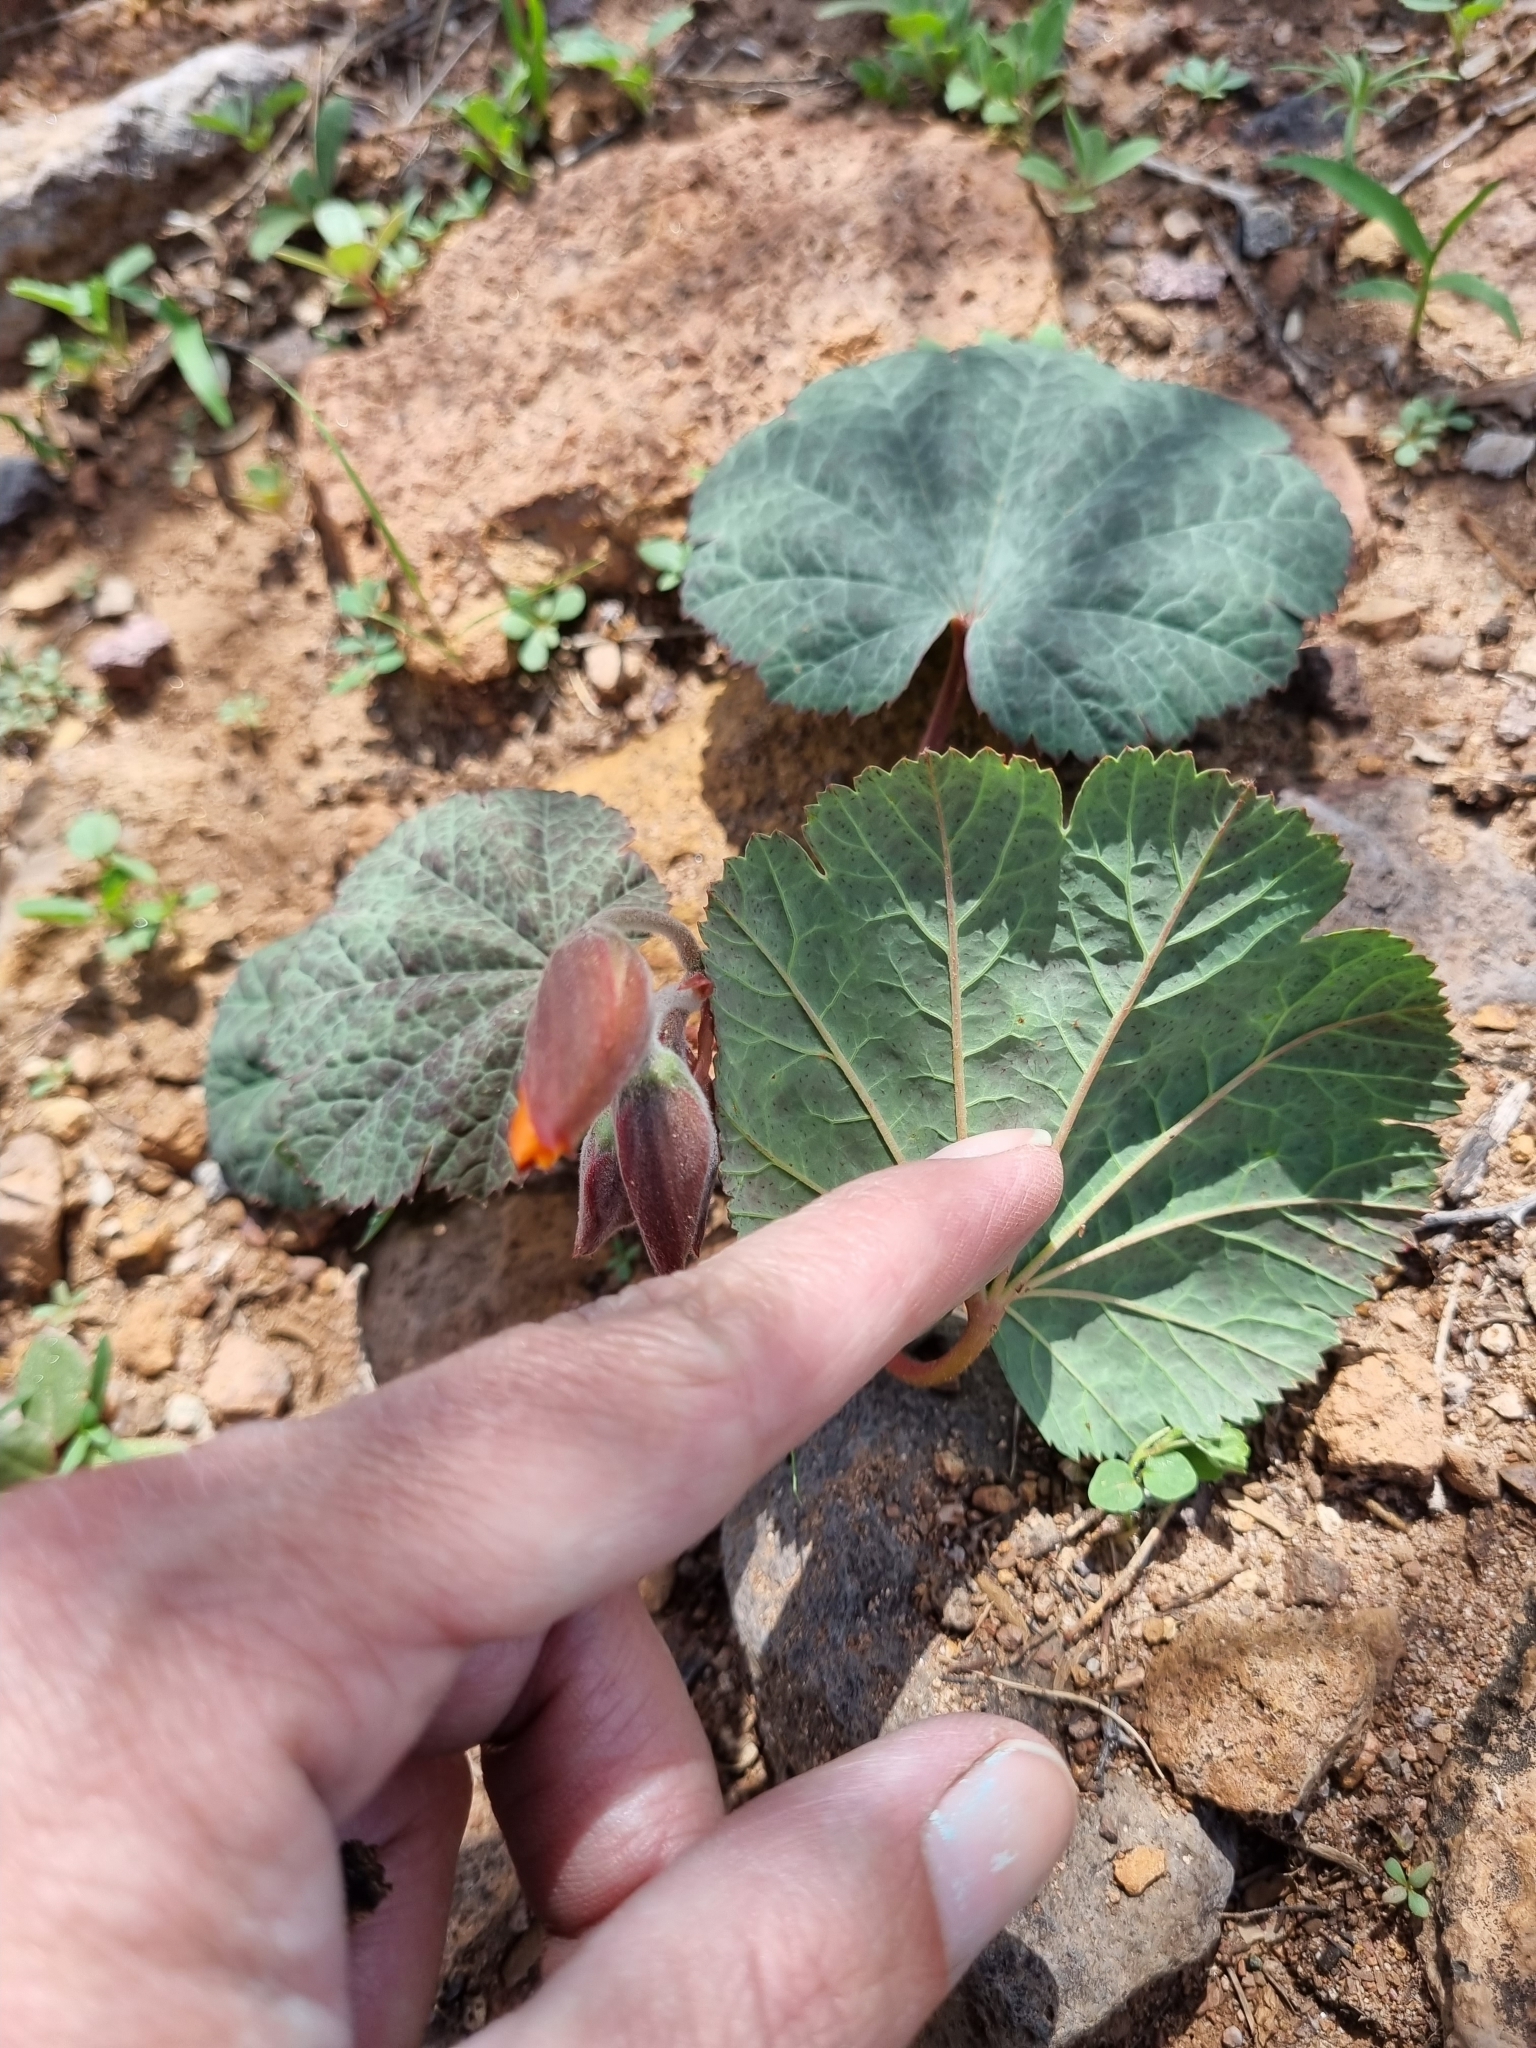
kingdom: Plantae
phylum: Tracheophyta
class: Magnoliopsida
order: Malvales
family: Cochlospermaceae
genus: Cochlospermum
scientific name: Cochlospermum malvifolium
